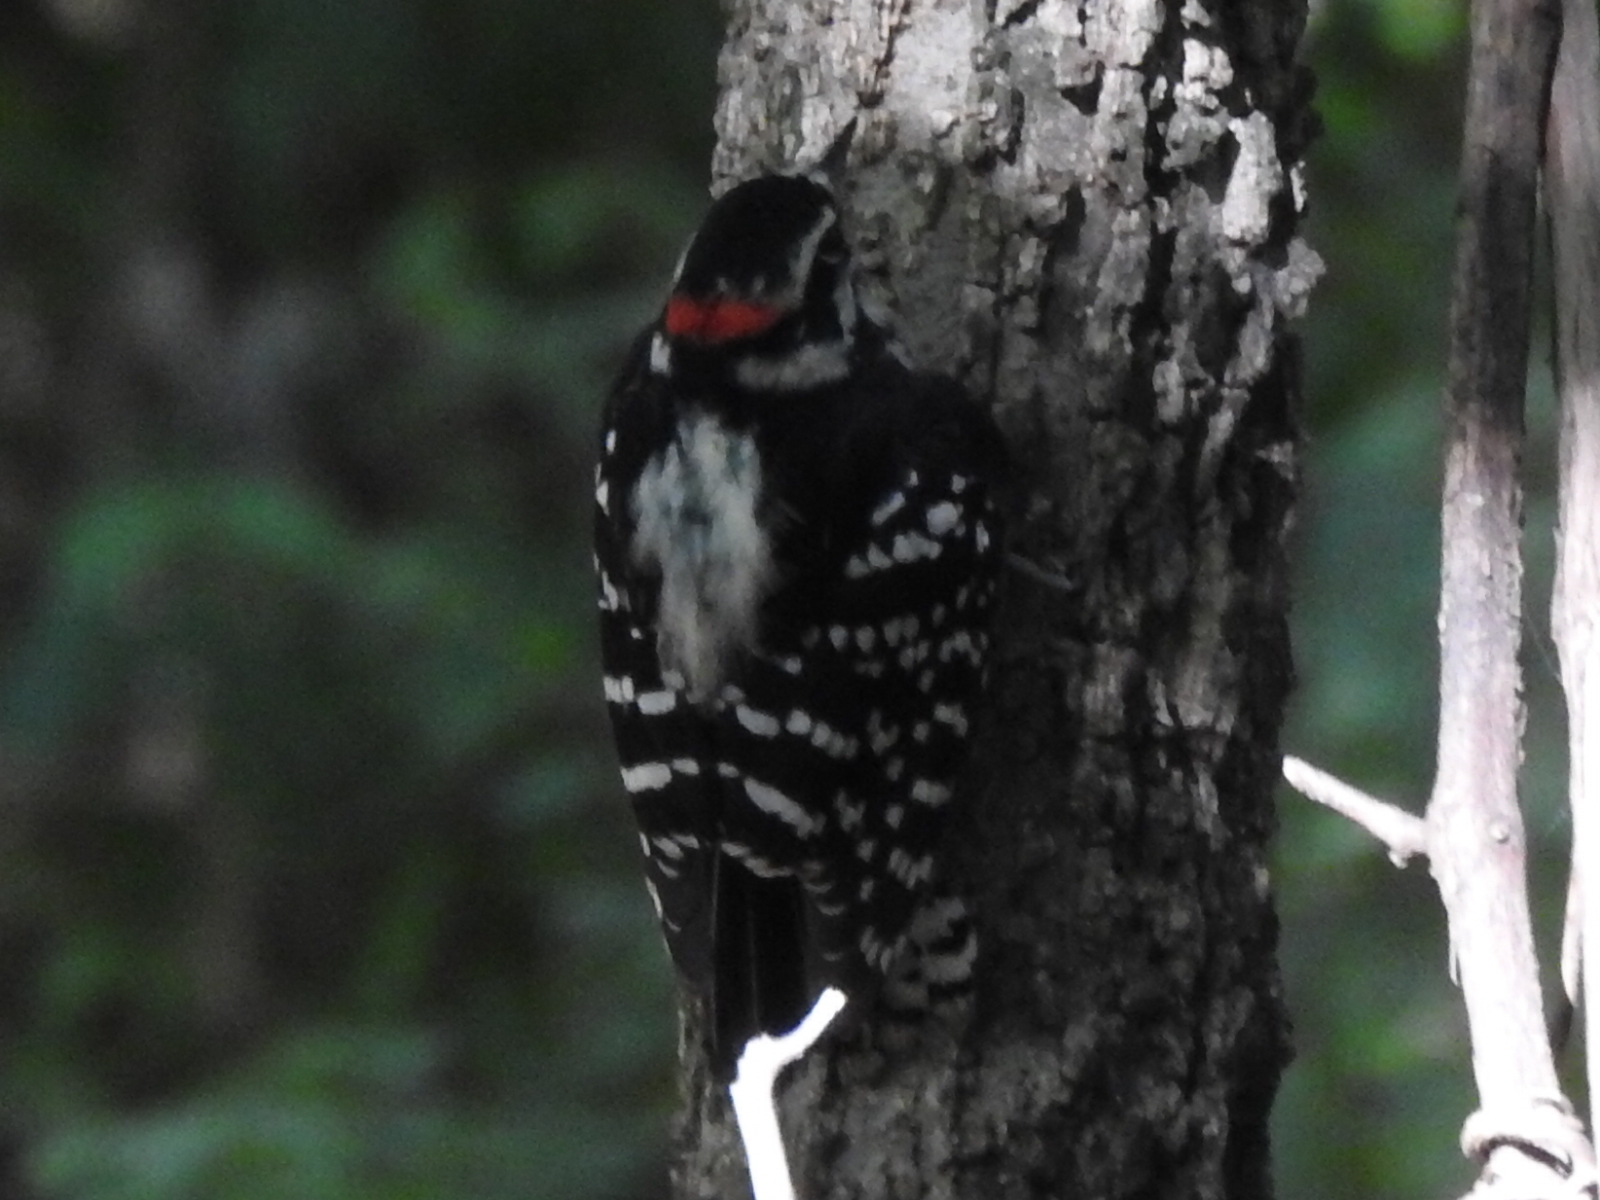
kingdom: Animalia
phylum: Chordata
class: Aves
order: Piciformes
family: Picidae
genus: Dryobates
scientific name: Dryobates pubescens
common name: Downy woodpecker
